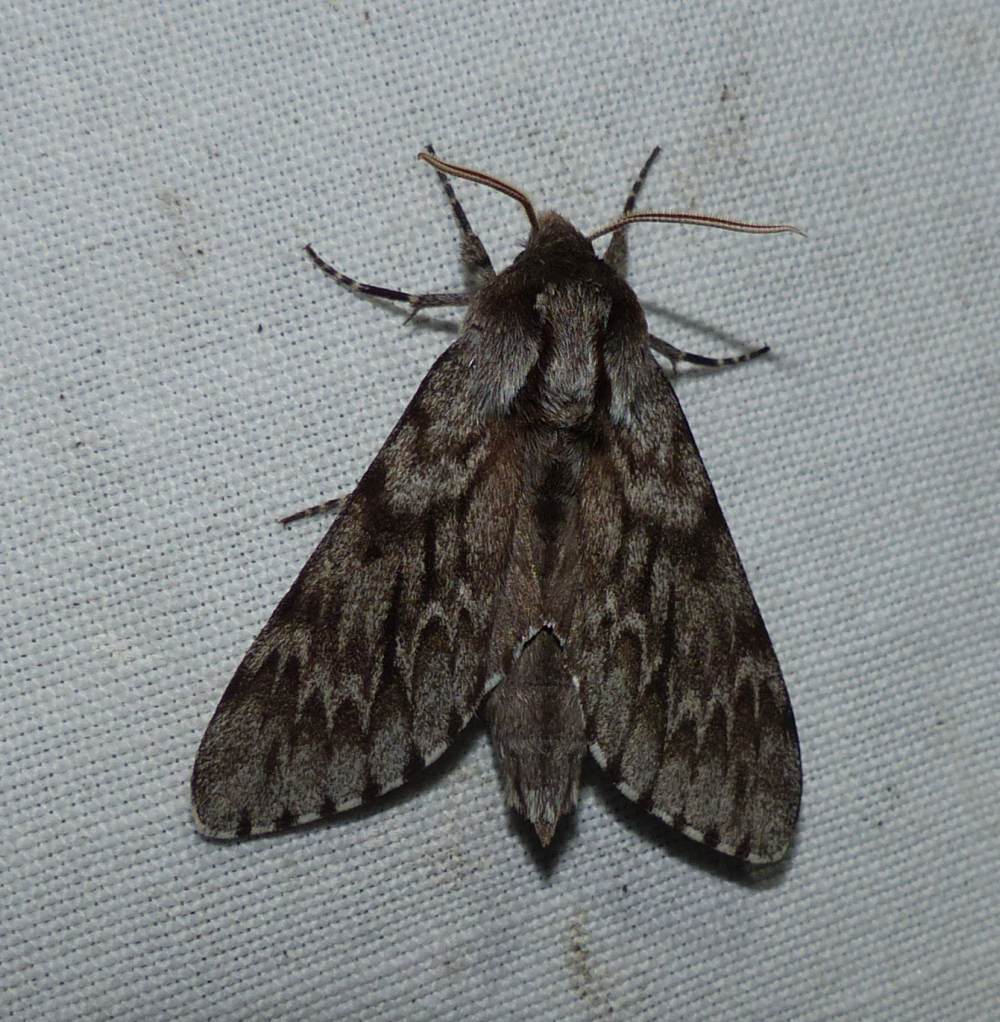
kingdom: Animalia
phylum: Arthropoda
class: Insecta
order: Lepidoptera
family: Sphingidae
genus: Lapara
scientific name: Lapara bombycoides
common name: Northern pine sphinx
